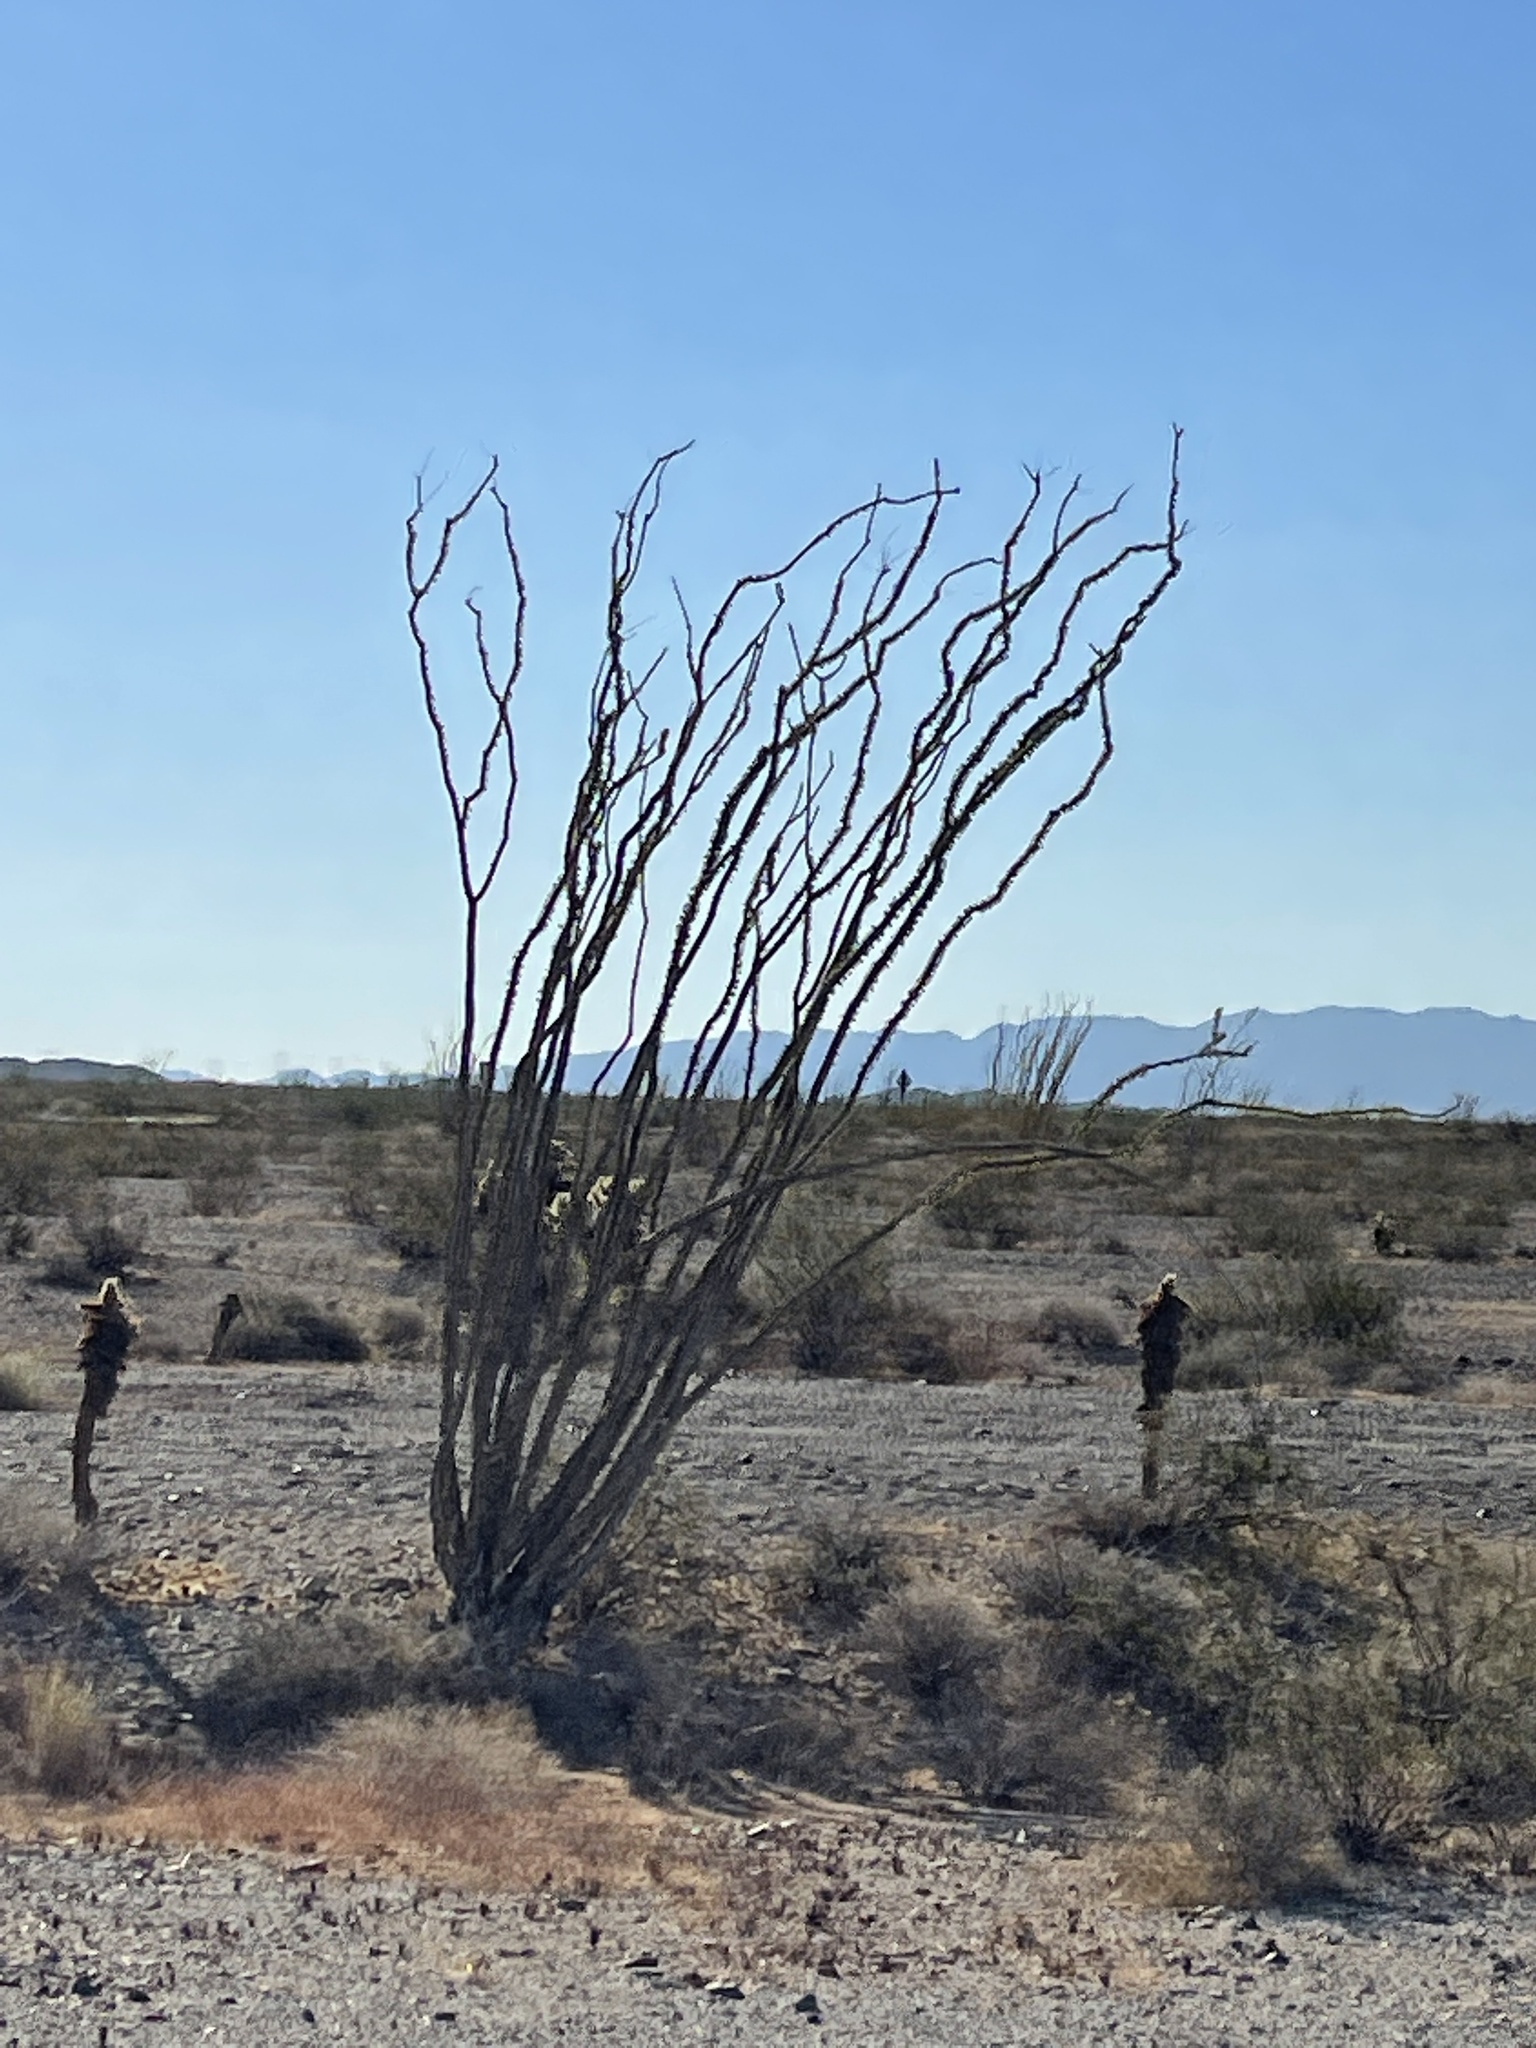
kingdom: Plantae
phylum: Tracheophyta
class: Magnoliopsida
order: Ericales
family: Fouquieriaceae
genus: Fouquieria
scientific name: Fouquieria splendens
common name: Vine-cactus
